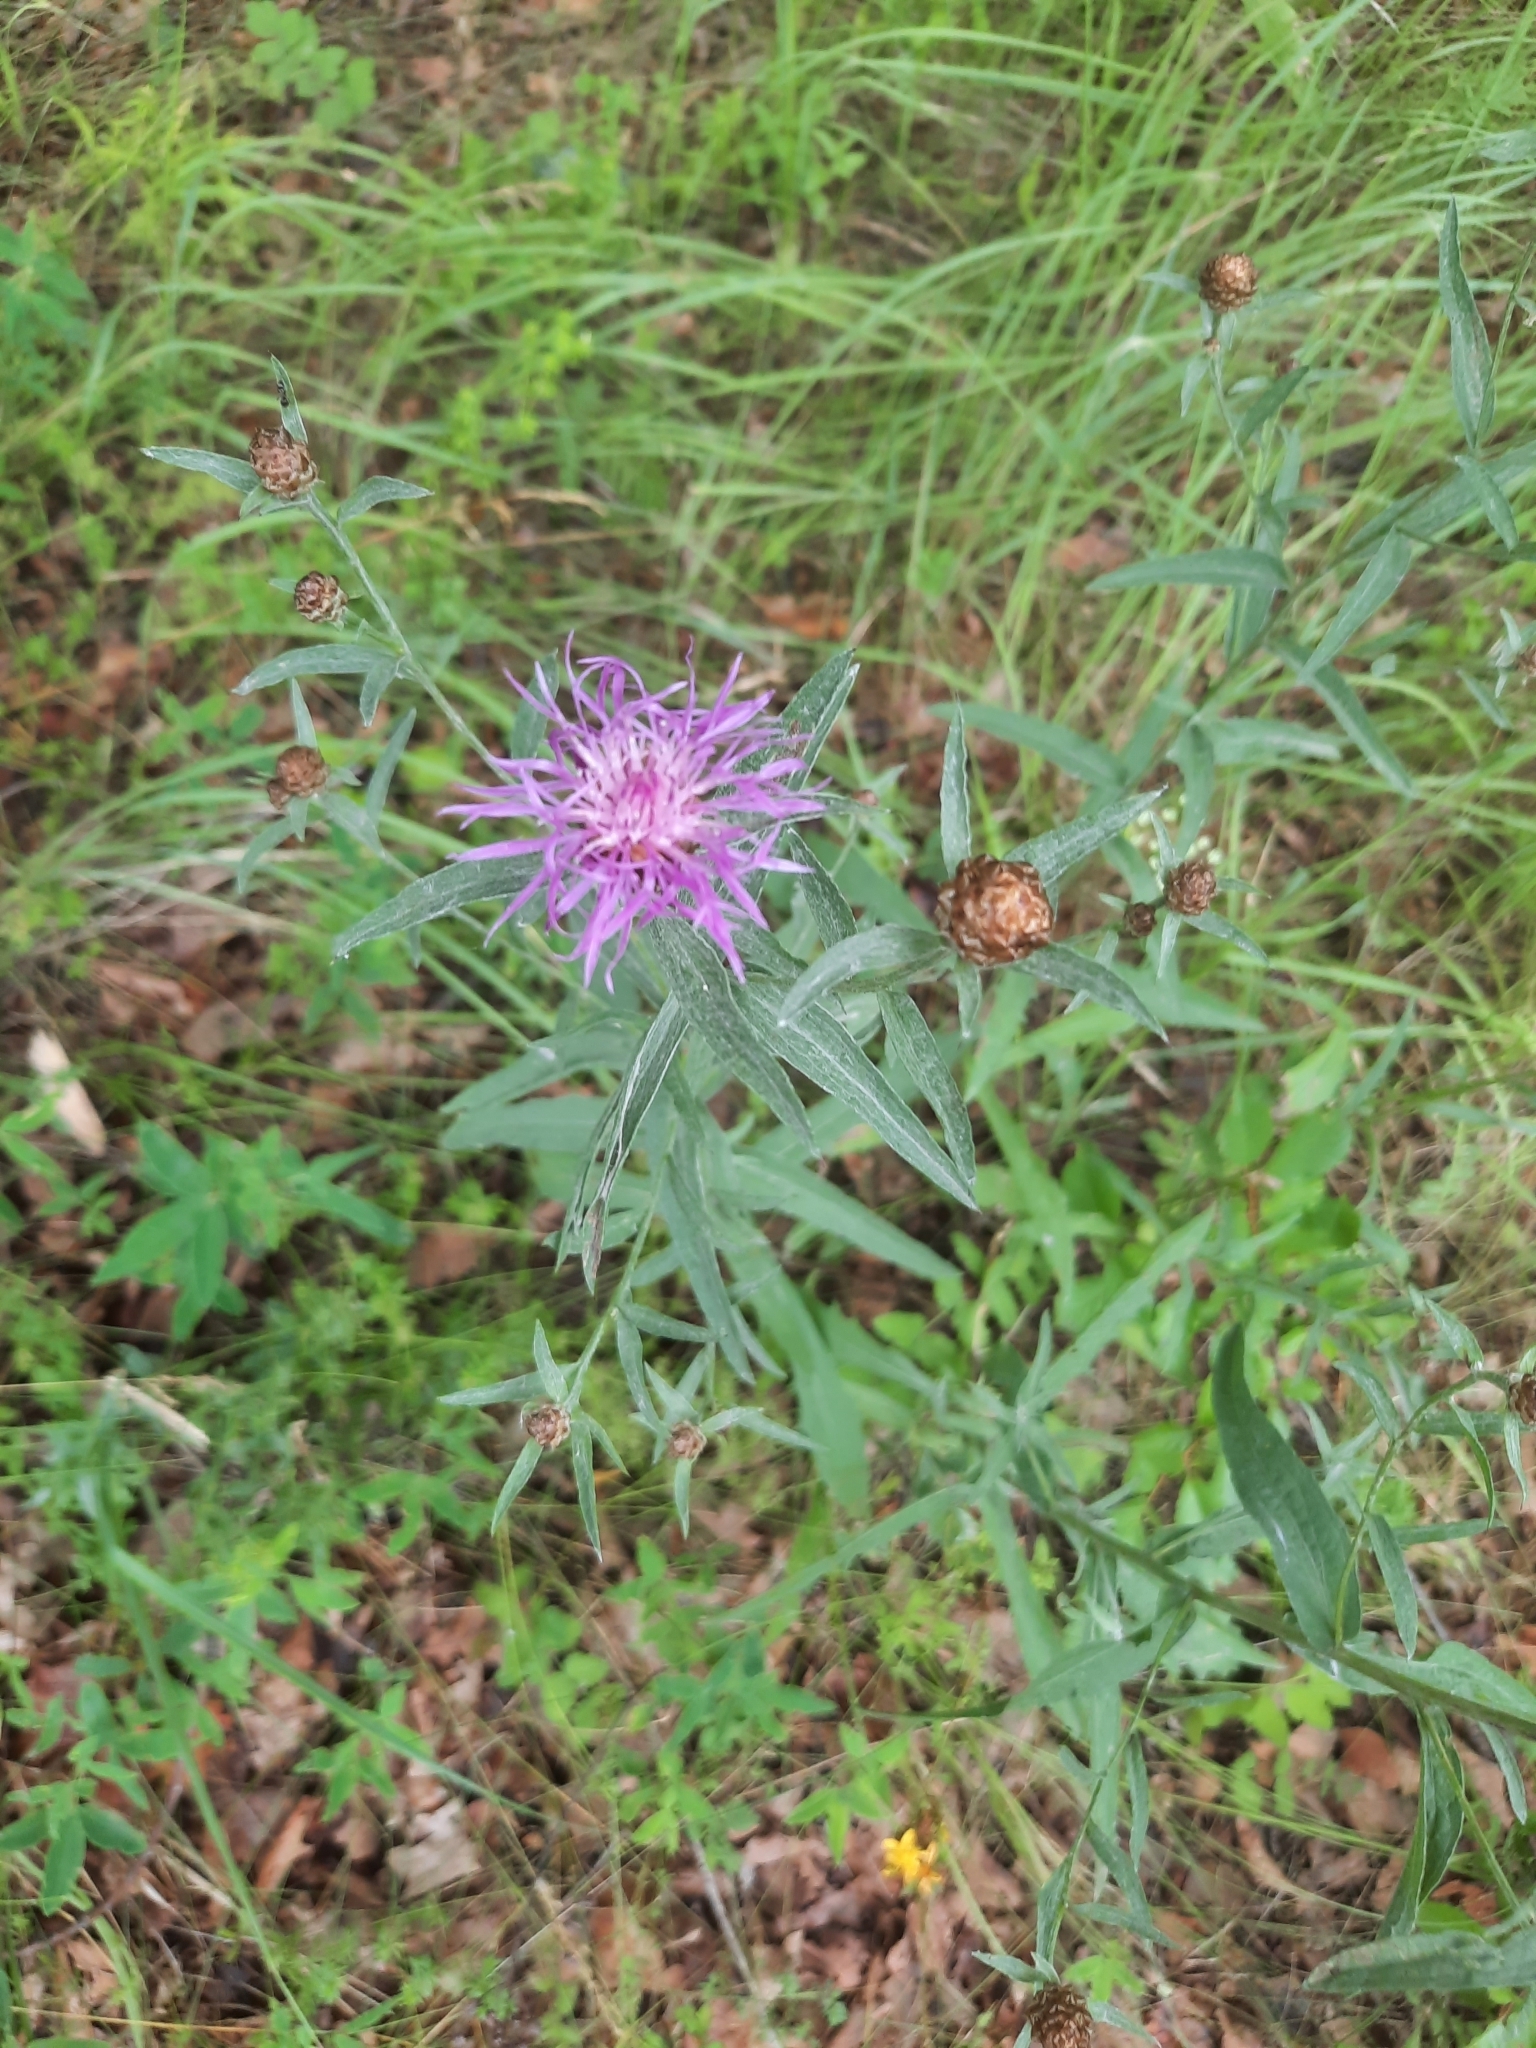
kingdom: Plantae
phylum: Tracheophyta
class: Magnoliopsida
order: Asterales
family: Asteraceae
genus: Centaurea
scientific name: Centaurea jacea
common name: Brown knapweed
